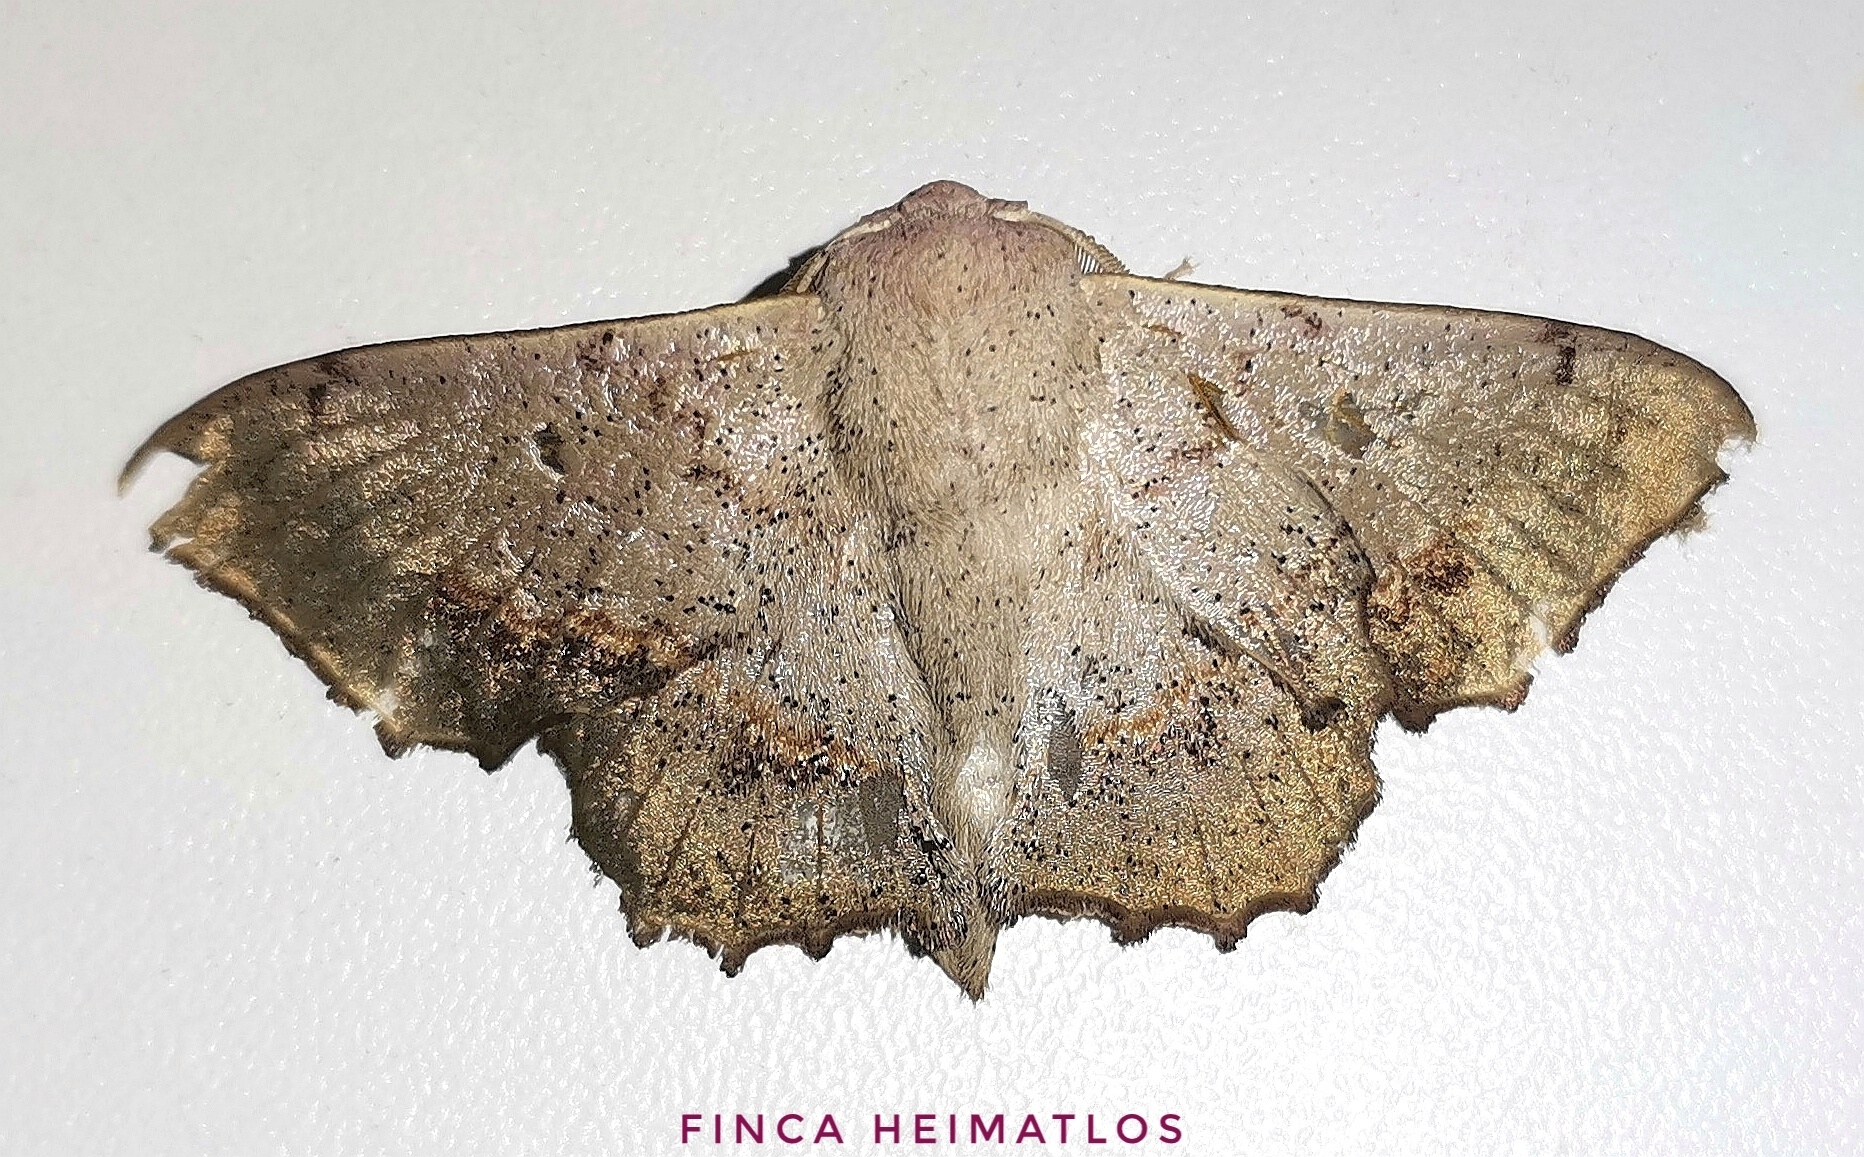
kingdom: Animalia
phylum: Arthropoda
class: Insecta
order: Lepidoptera
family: Mimallonidae
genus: Mimallo
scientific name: Mimallo brosica
